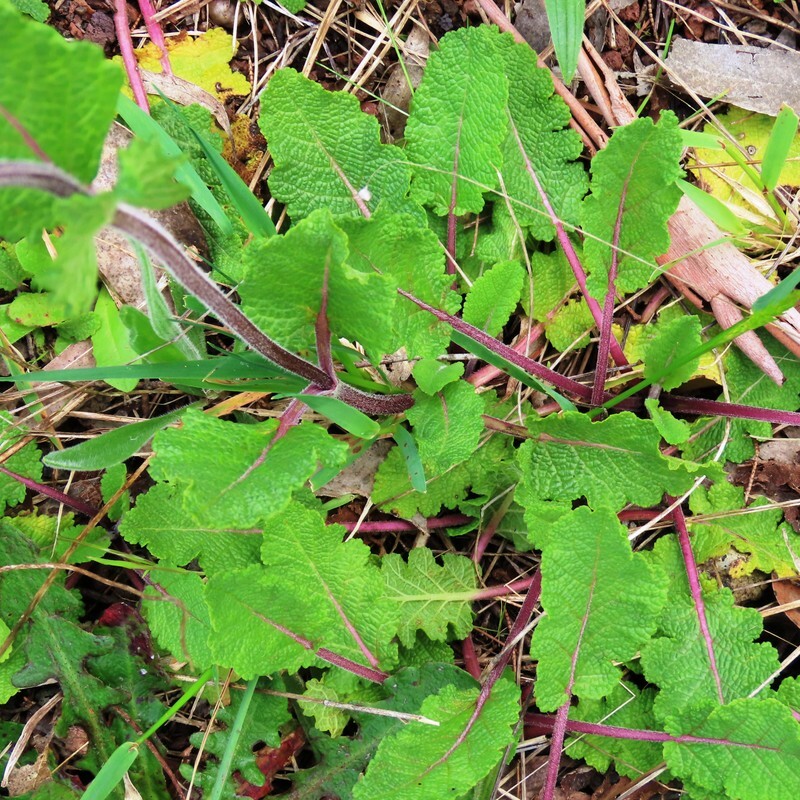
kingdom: Plantae
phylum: Tracheophyta
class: Magnoliopsida
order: Lamiales
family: Lamiaceae
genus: Salvia
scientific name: Salvia verbenaca
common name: Wild clary
